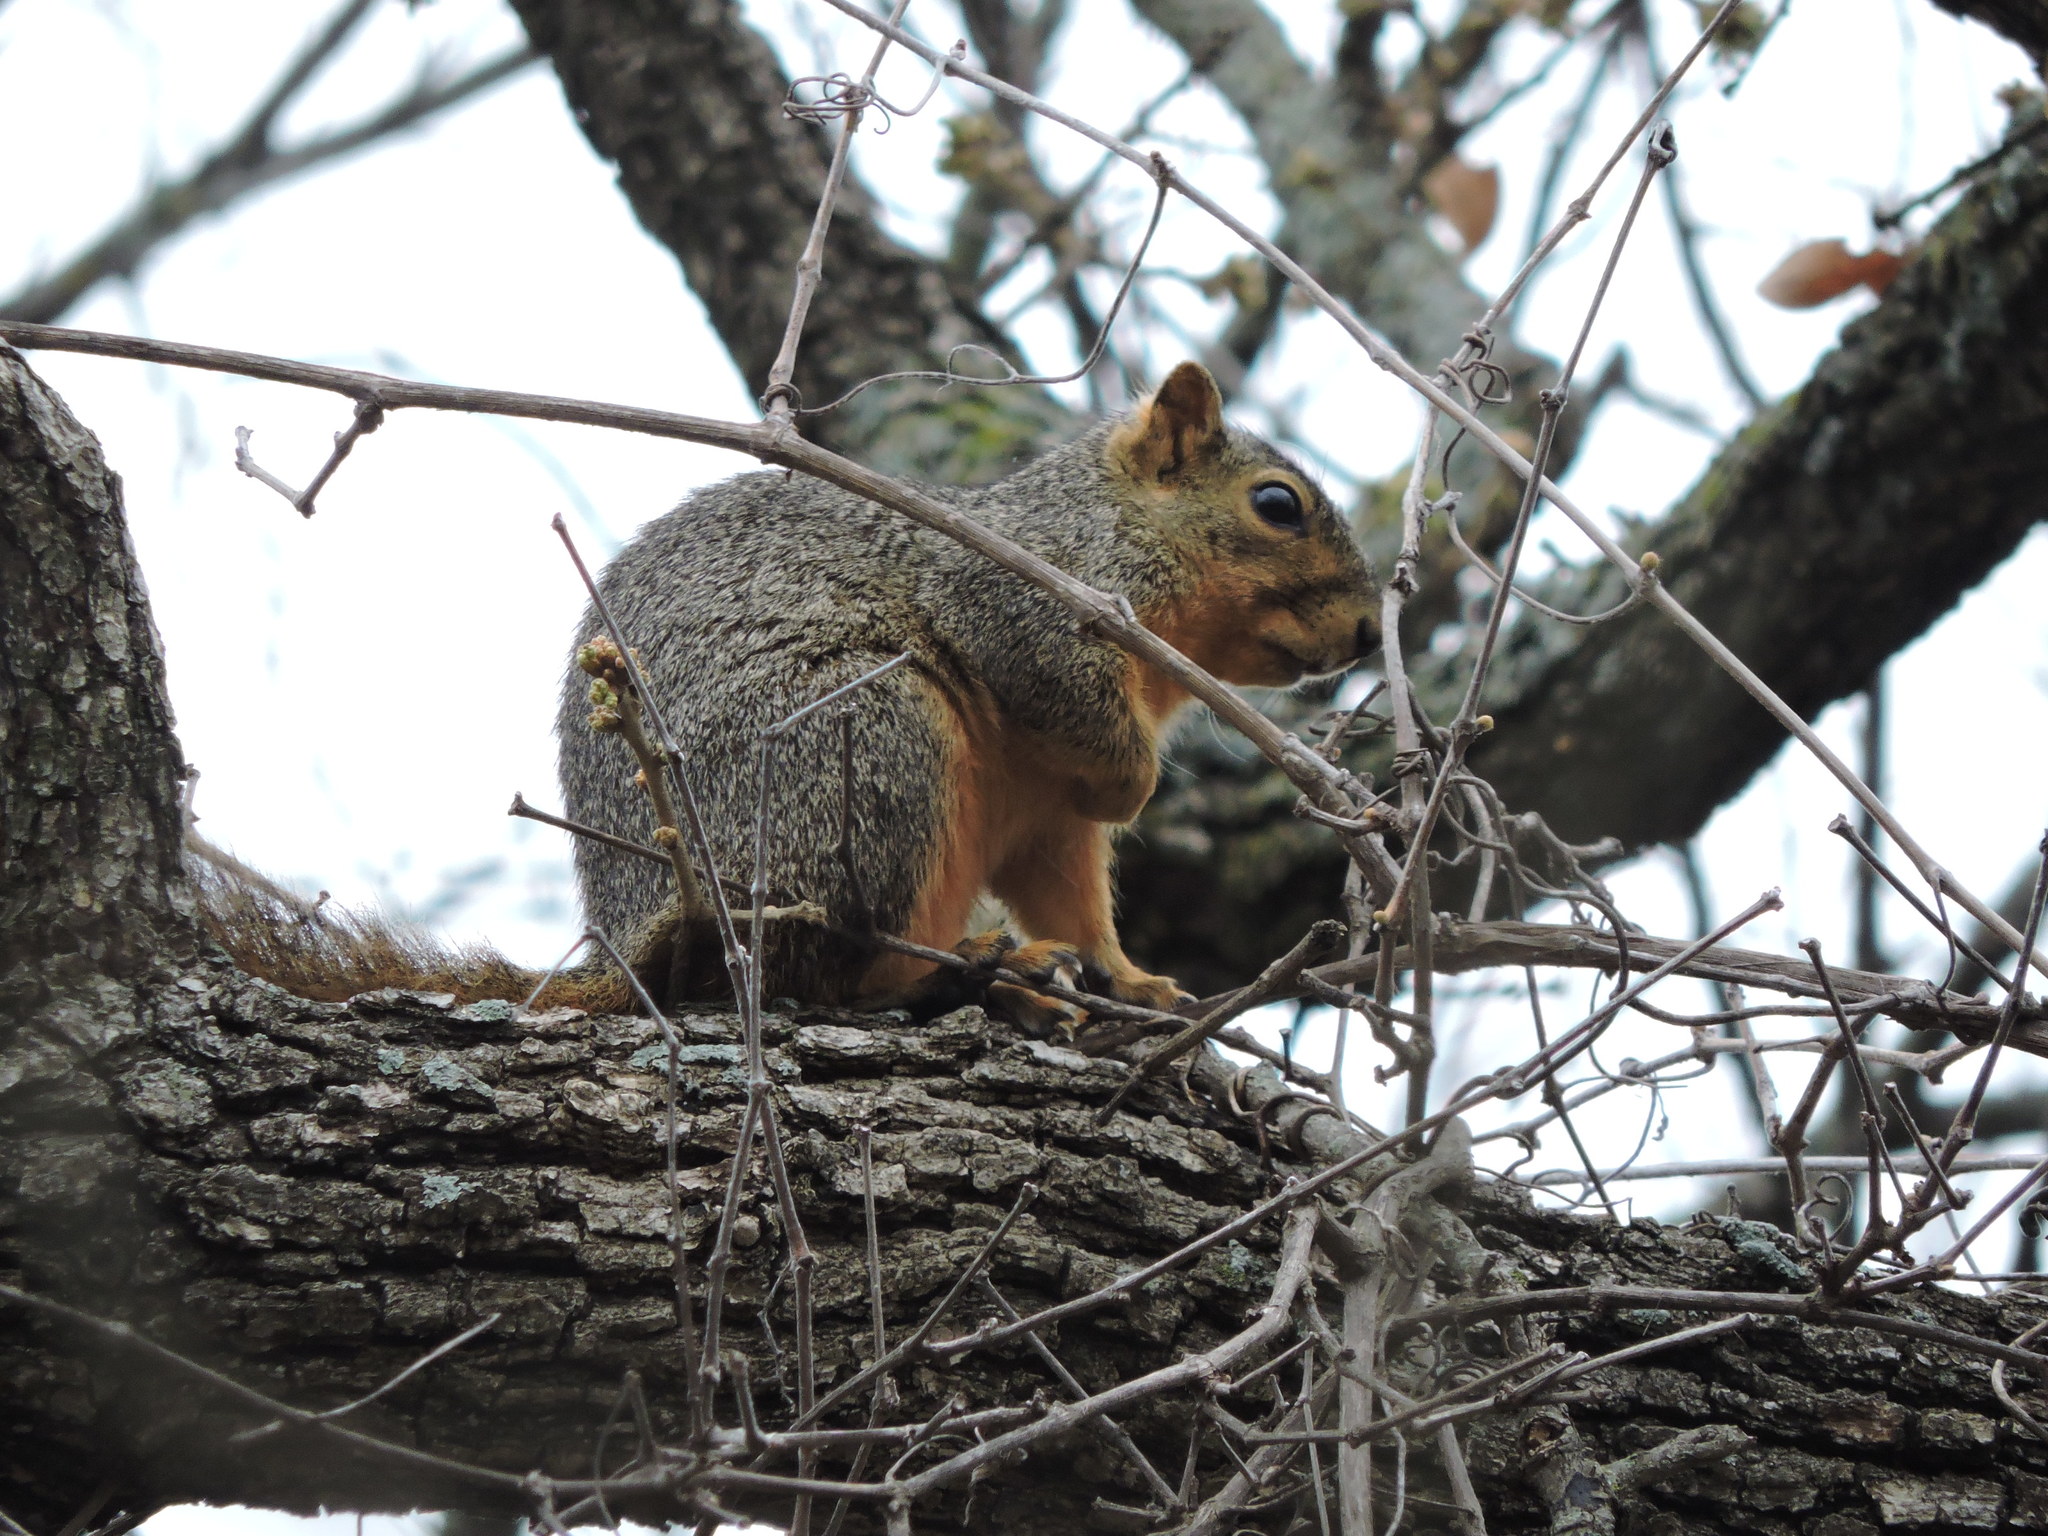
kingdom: Animalia
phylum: Chordata
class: Mammalia
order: Rodentia
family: Sciuridae
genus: Sciurus
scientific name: Sciurus niger
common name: Fox squirrel
